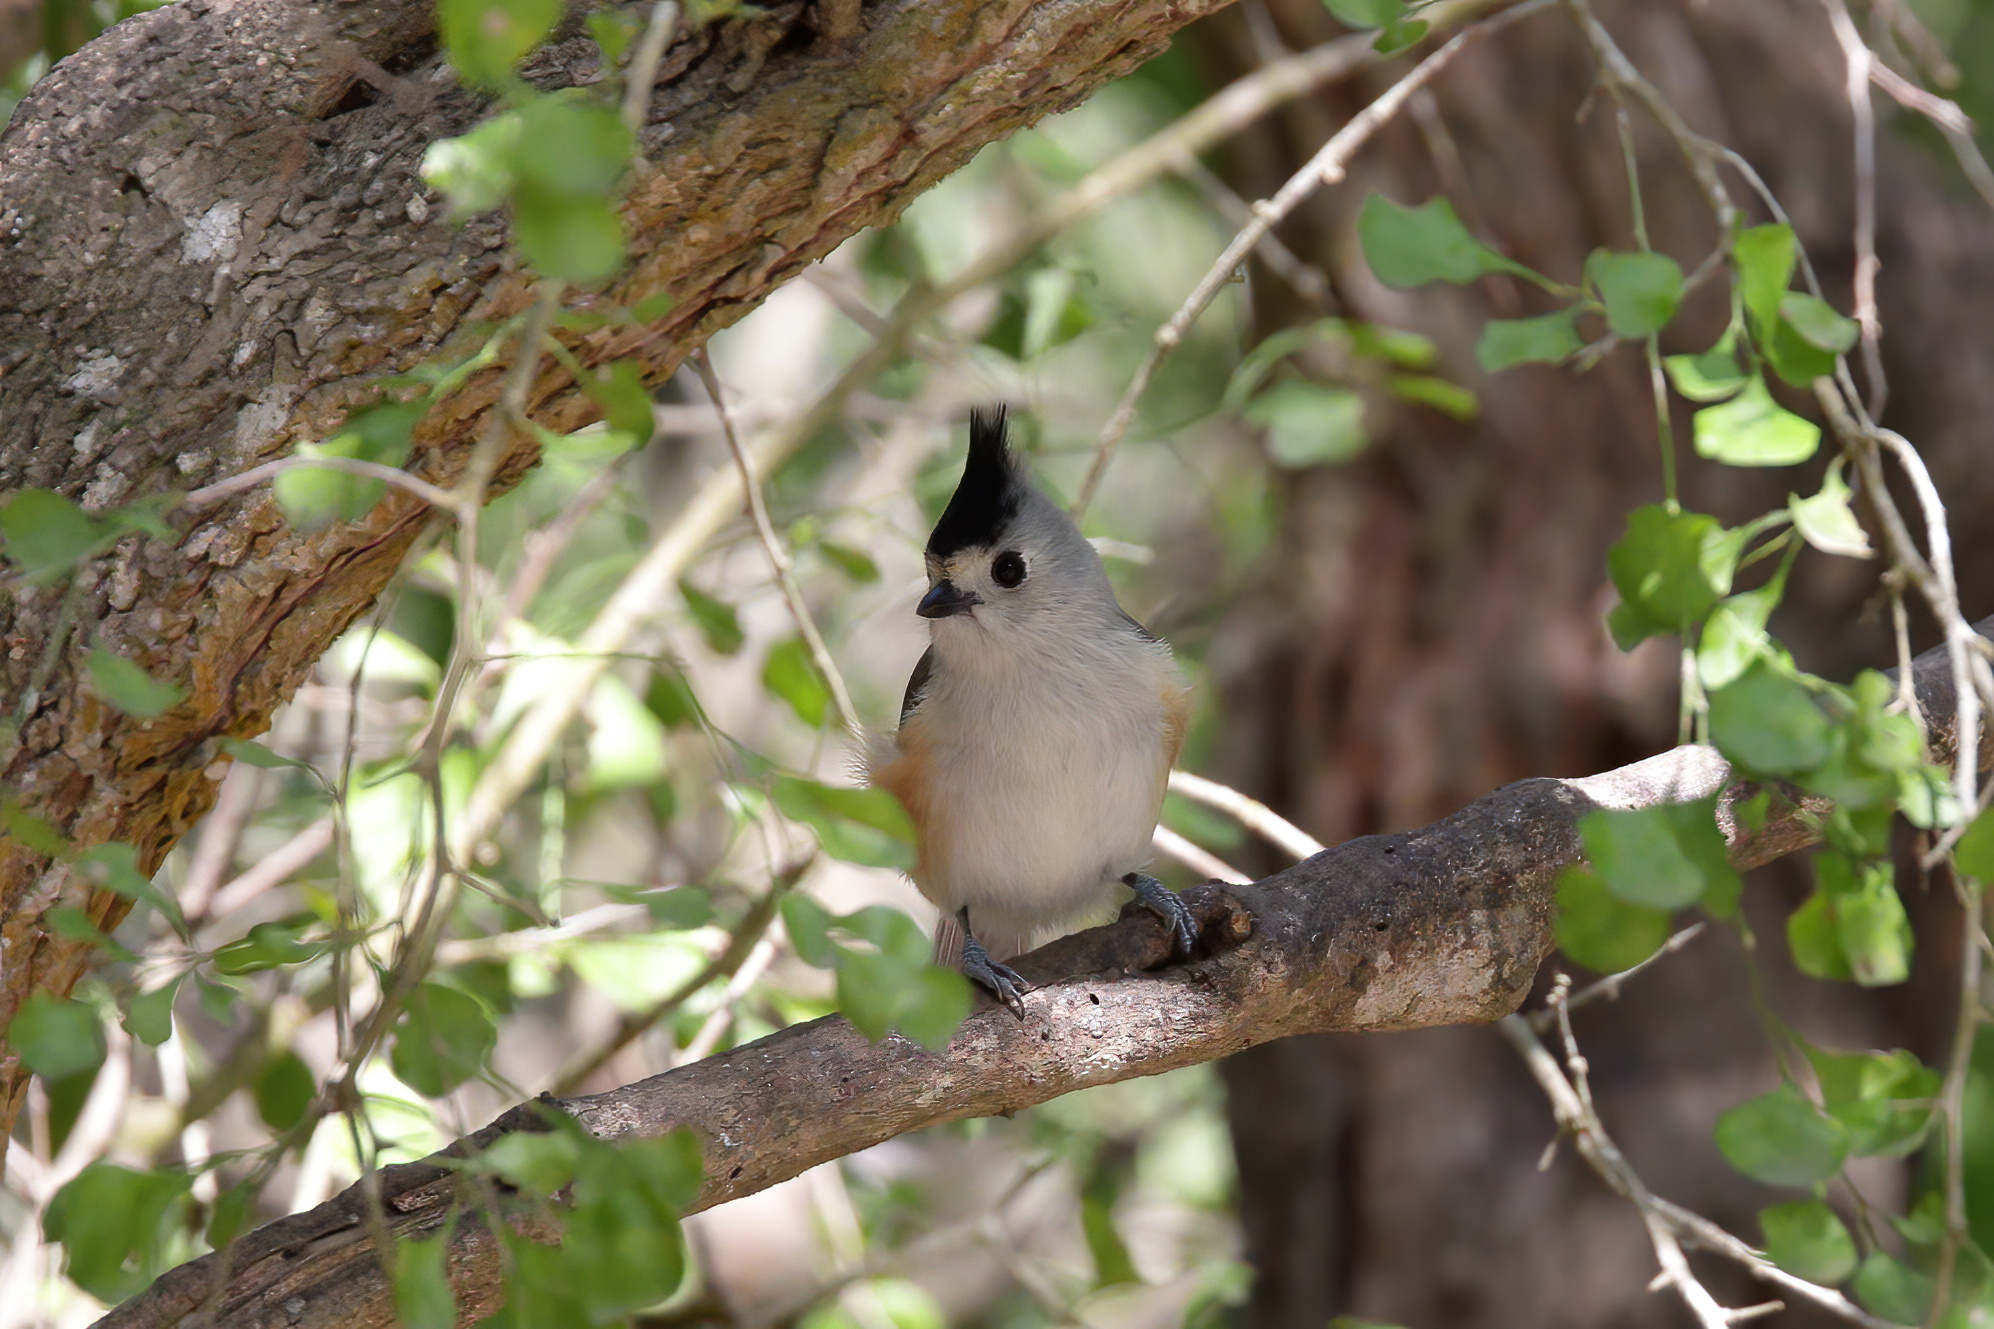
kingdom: Animalia
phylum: Chordata
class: Aves
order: Passeriformes
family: Paridae
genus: Baeolophus
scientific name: Baeolophus atricristatus
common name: Black-crested titmouse
